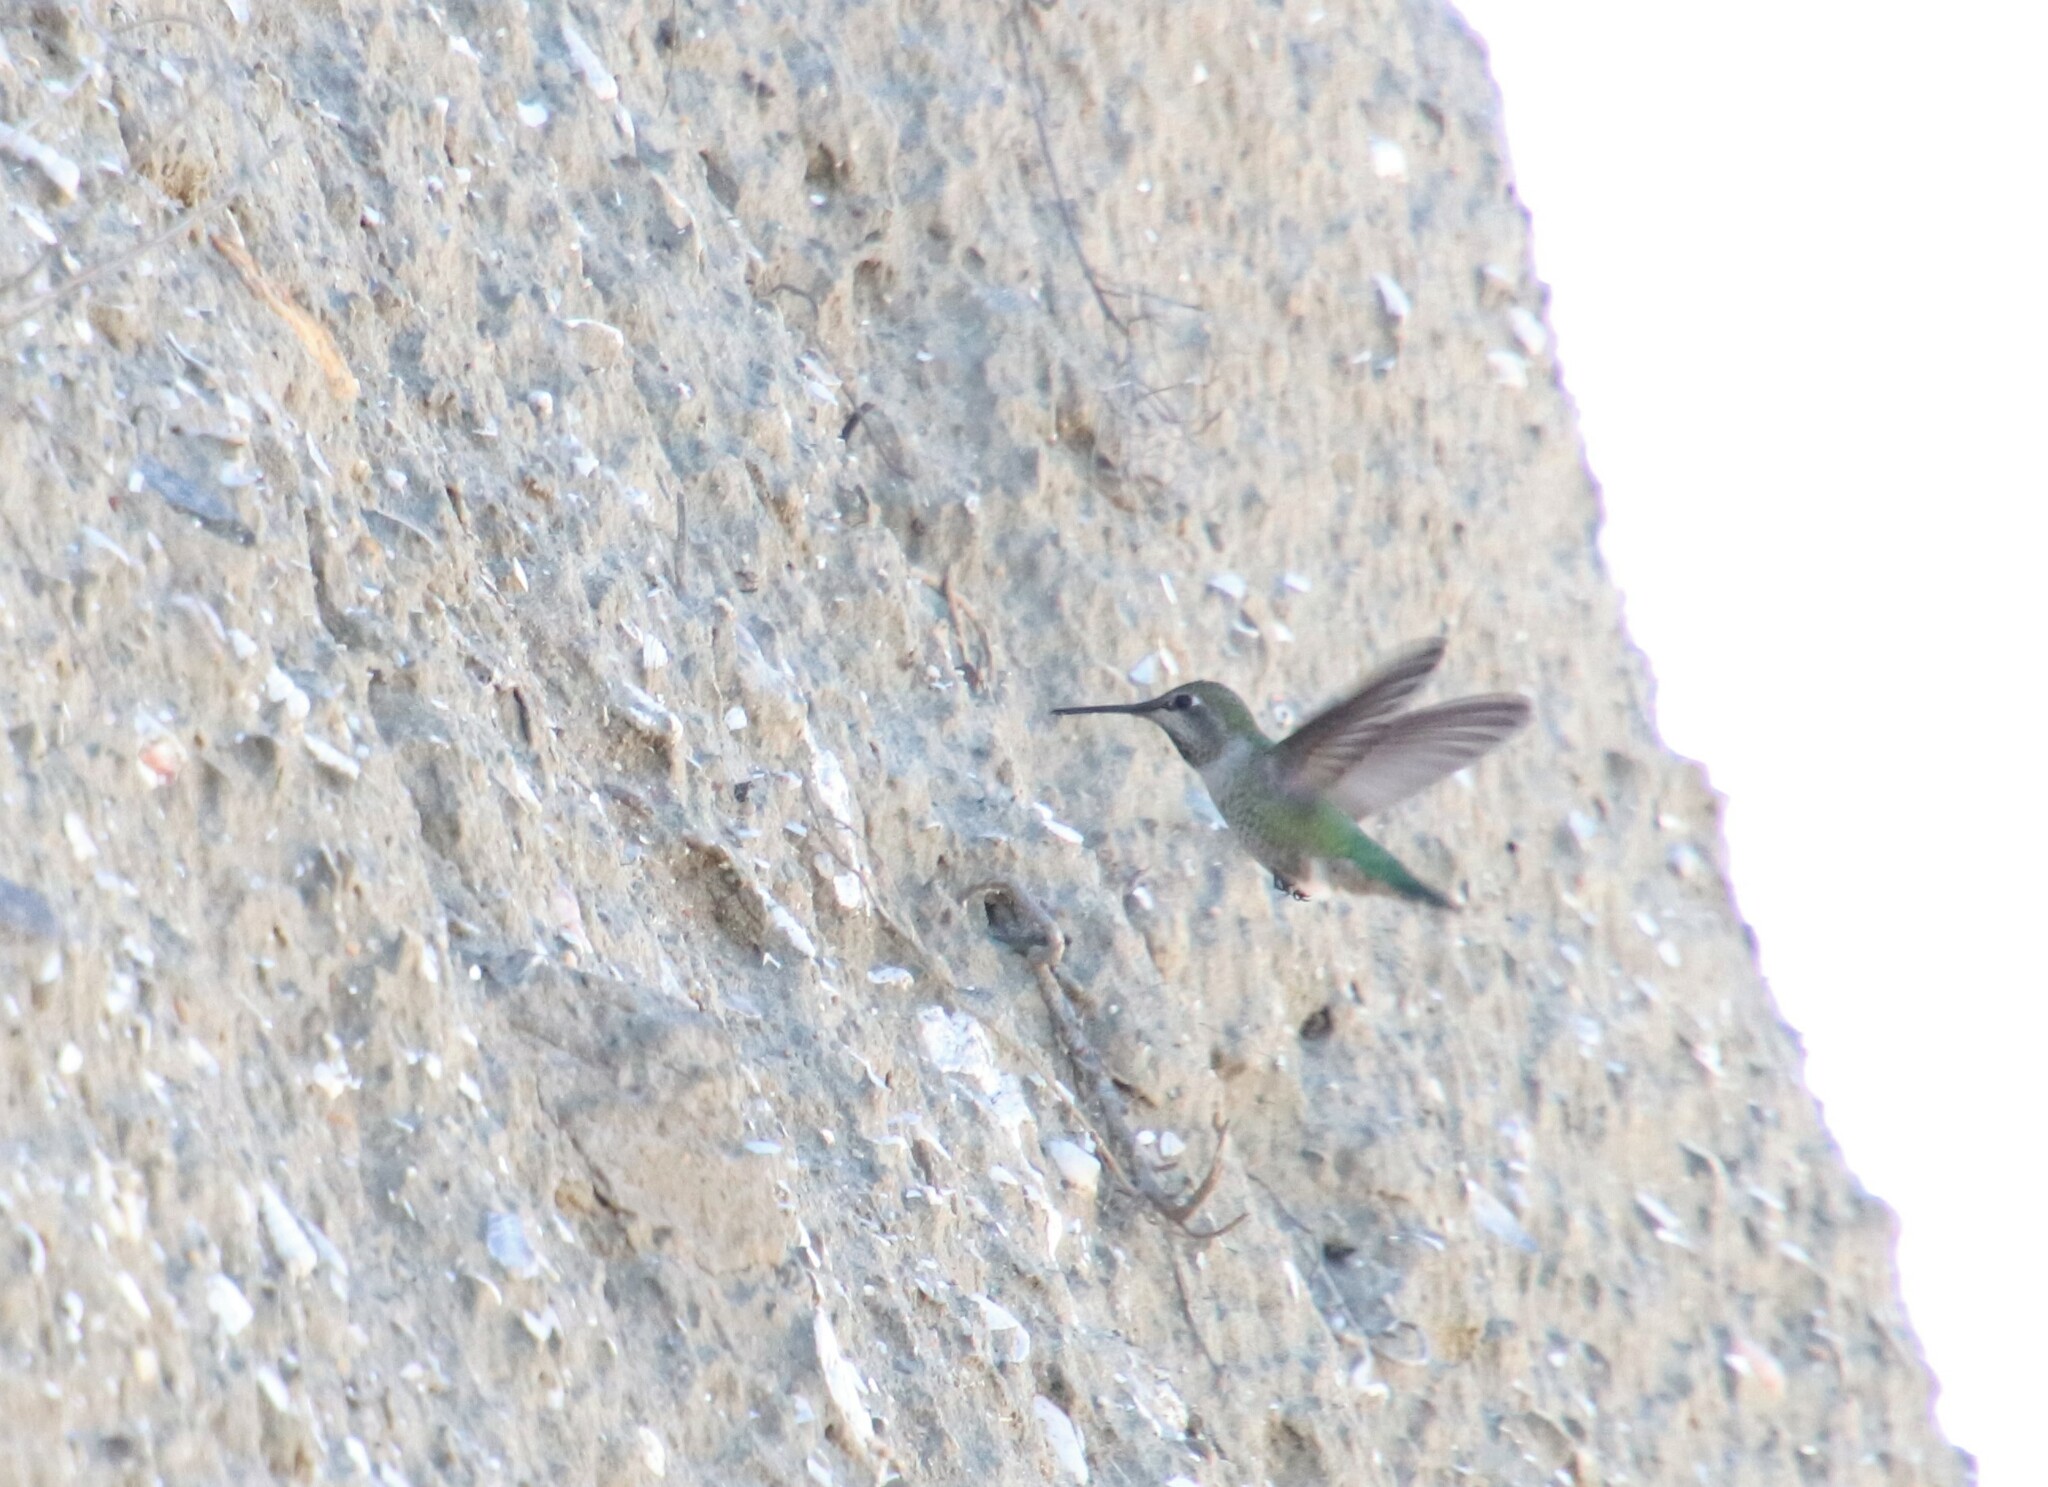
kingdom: Animalia
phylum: Chordata
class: Aves
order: Apodiformes
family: Trochilidae
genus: Calypte
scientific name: Calypte anna
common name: Anna's hummingbird
